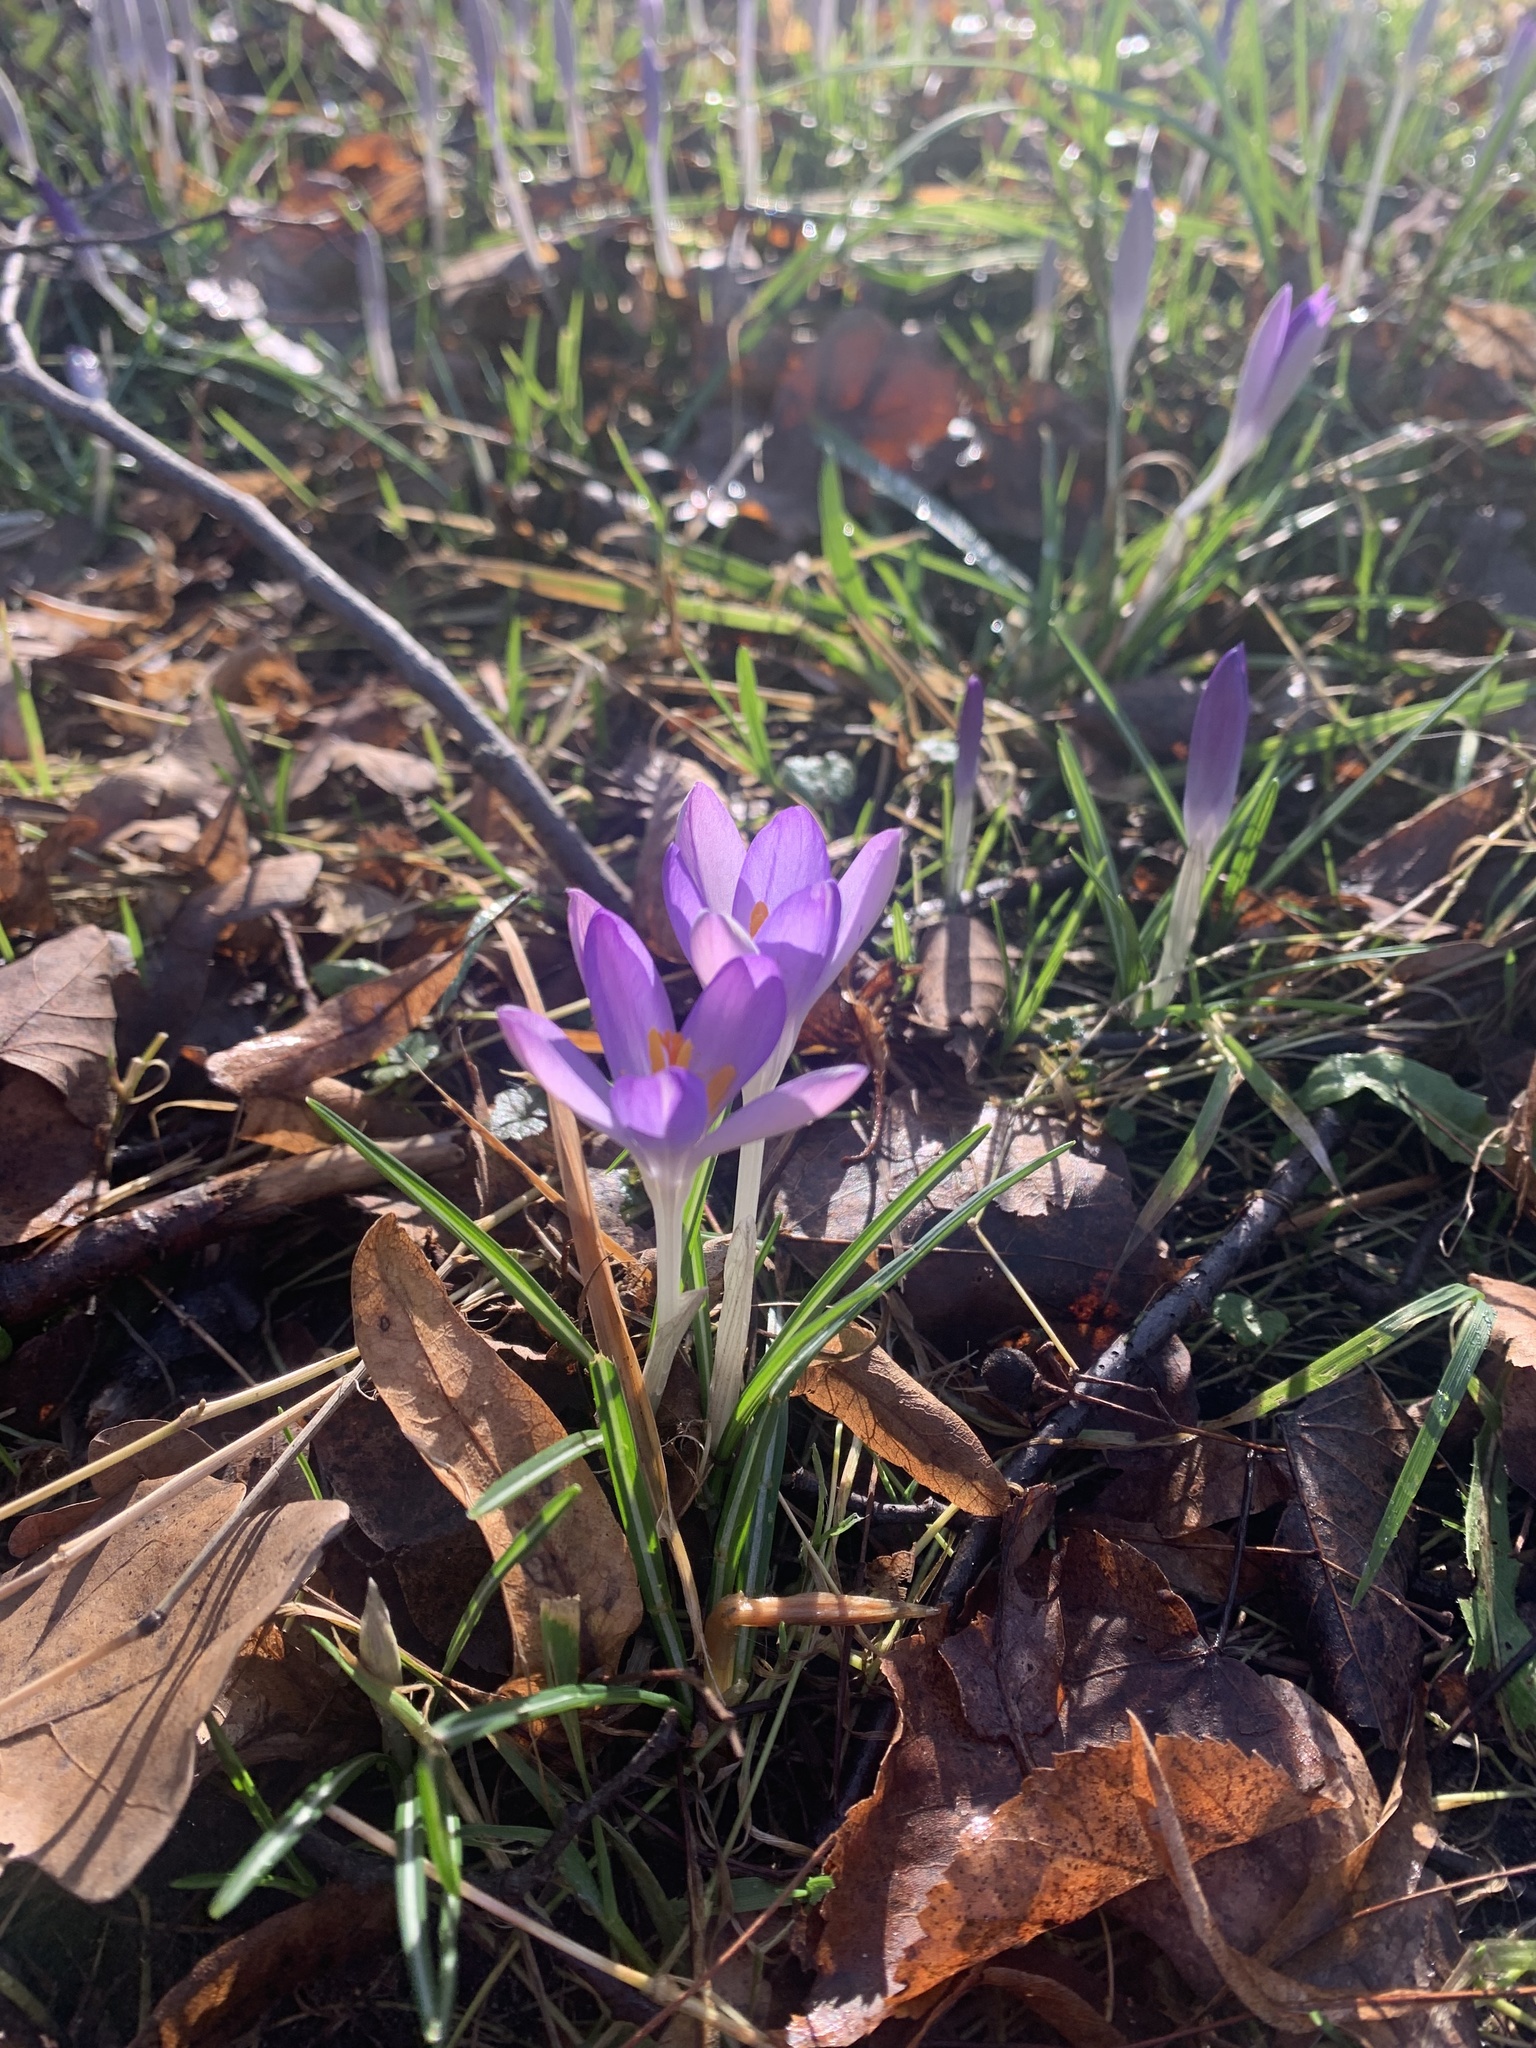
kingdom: Plantae
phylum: Tracheophyta
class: Liliopsida
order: Asparagales
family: Iridaceae
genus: Crocus
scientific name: Crocus tommasinianus
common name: Early crocus
